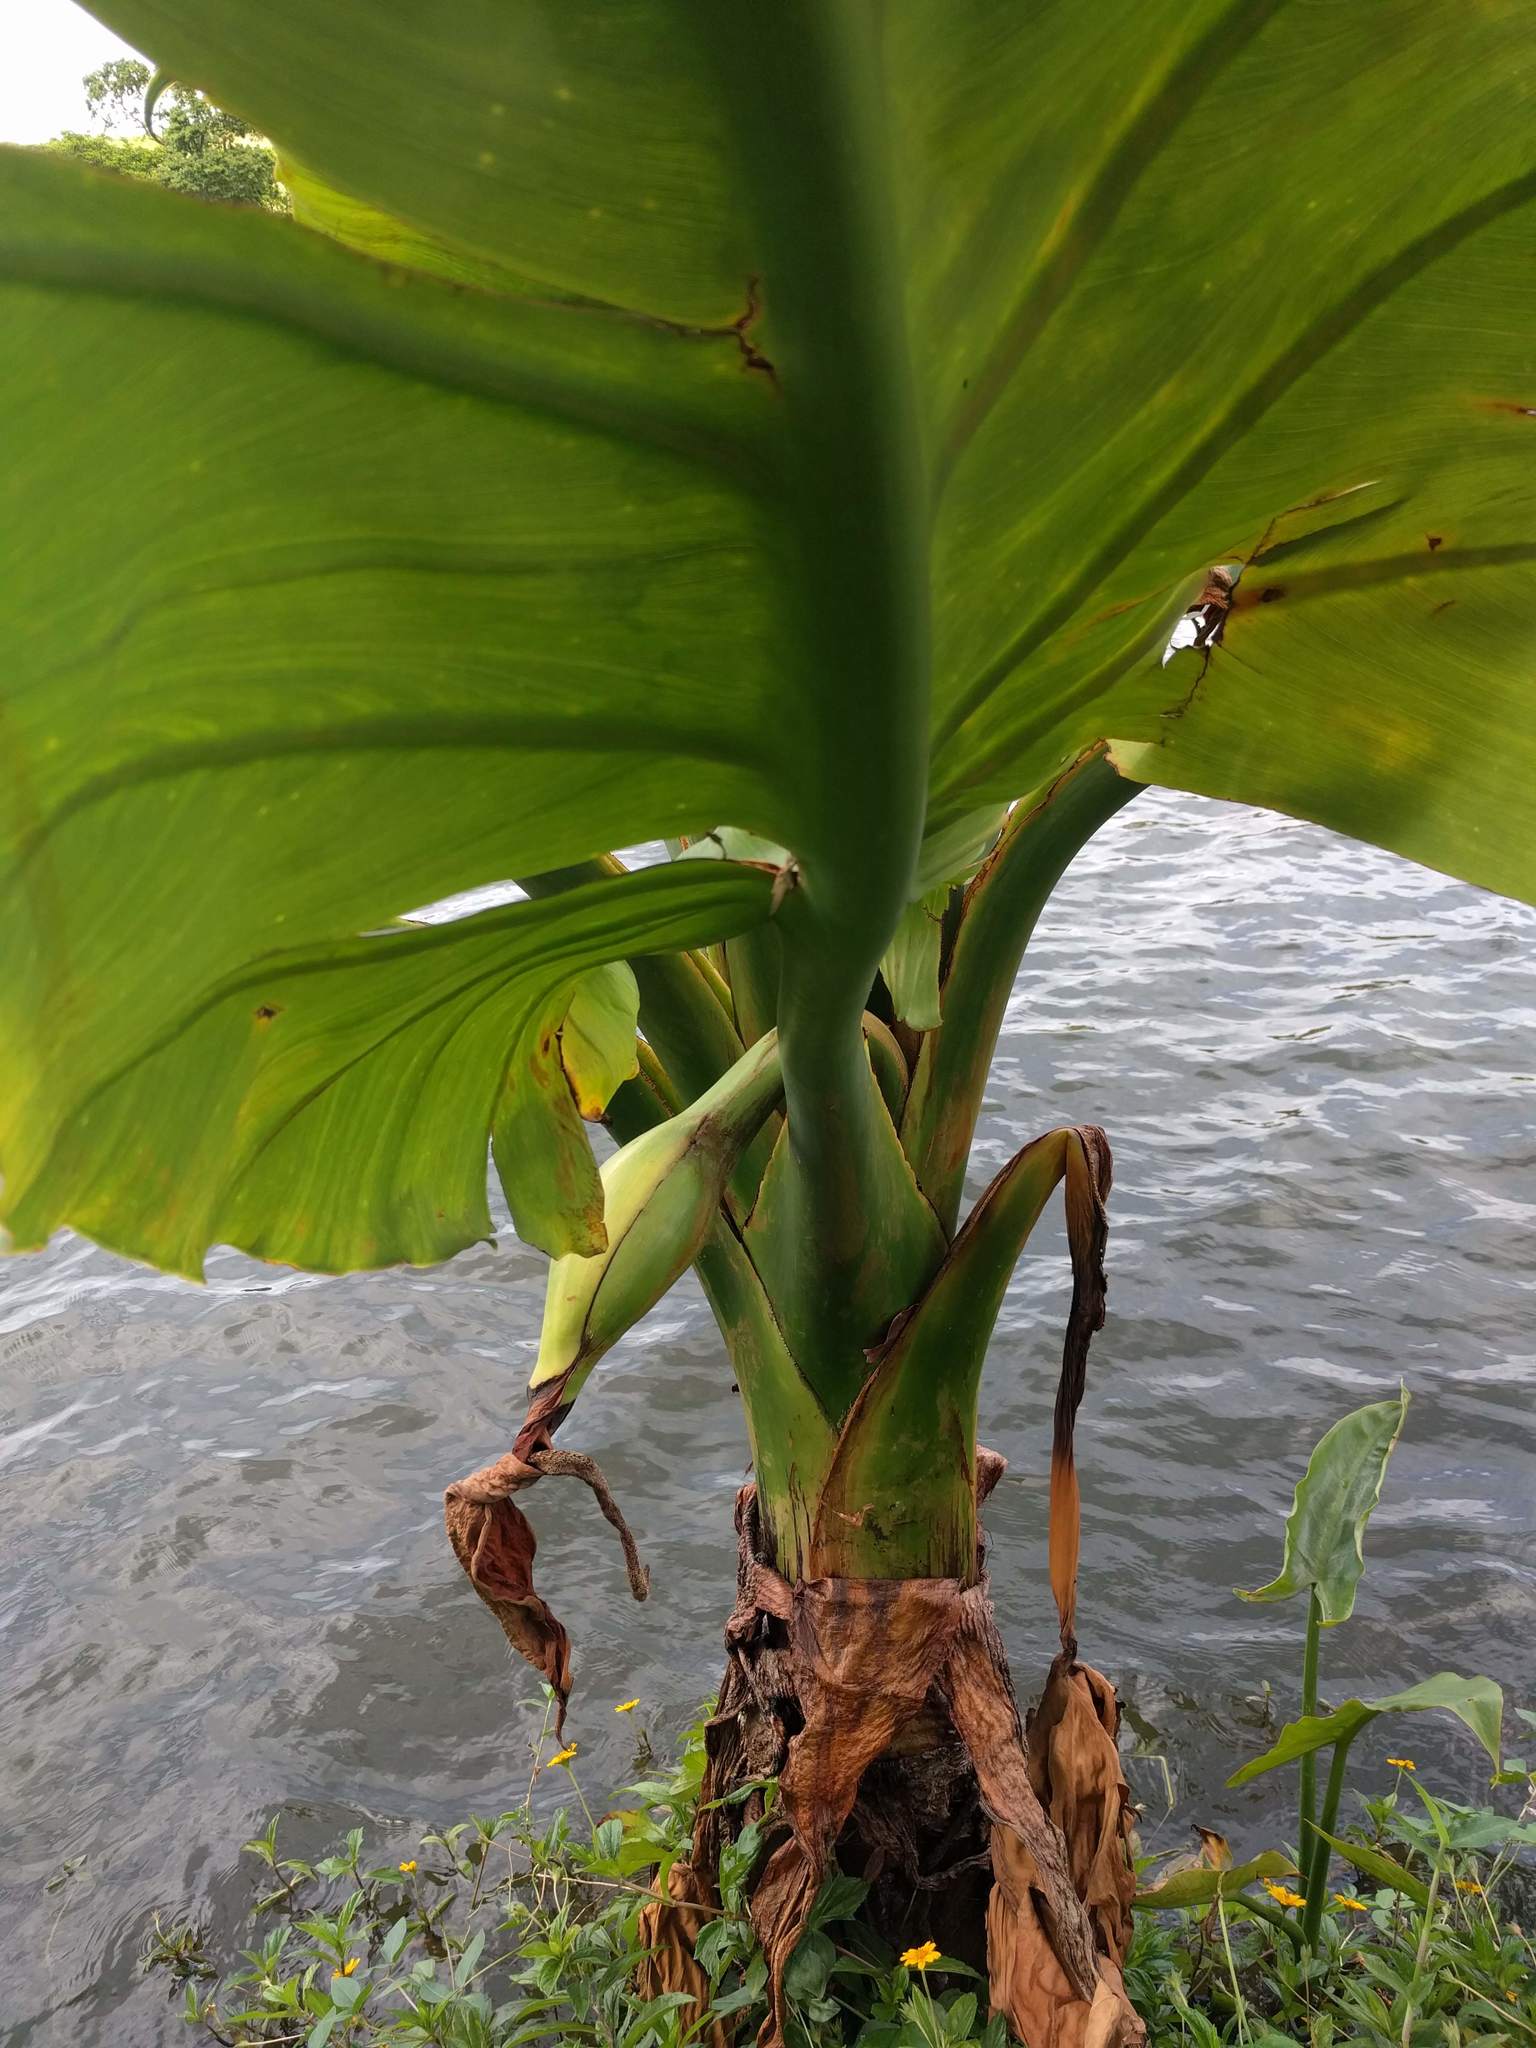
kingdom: Plantae
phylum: Tracheophyta
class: Liliopsida
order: Alismatales
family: Araceae
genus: Typhonodorum
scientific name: Typhonodorum lindleyanum
